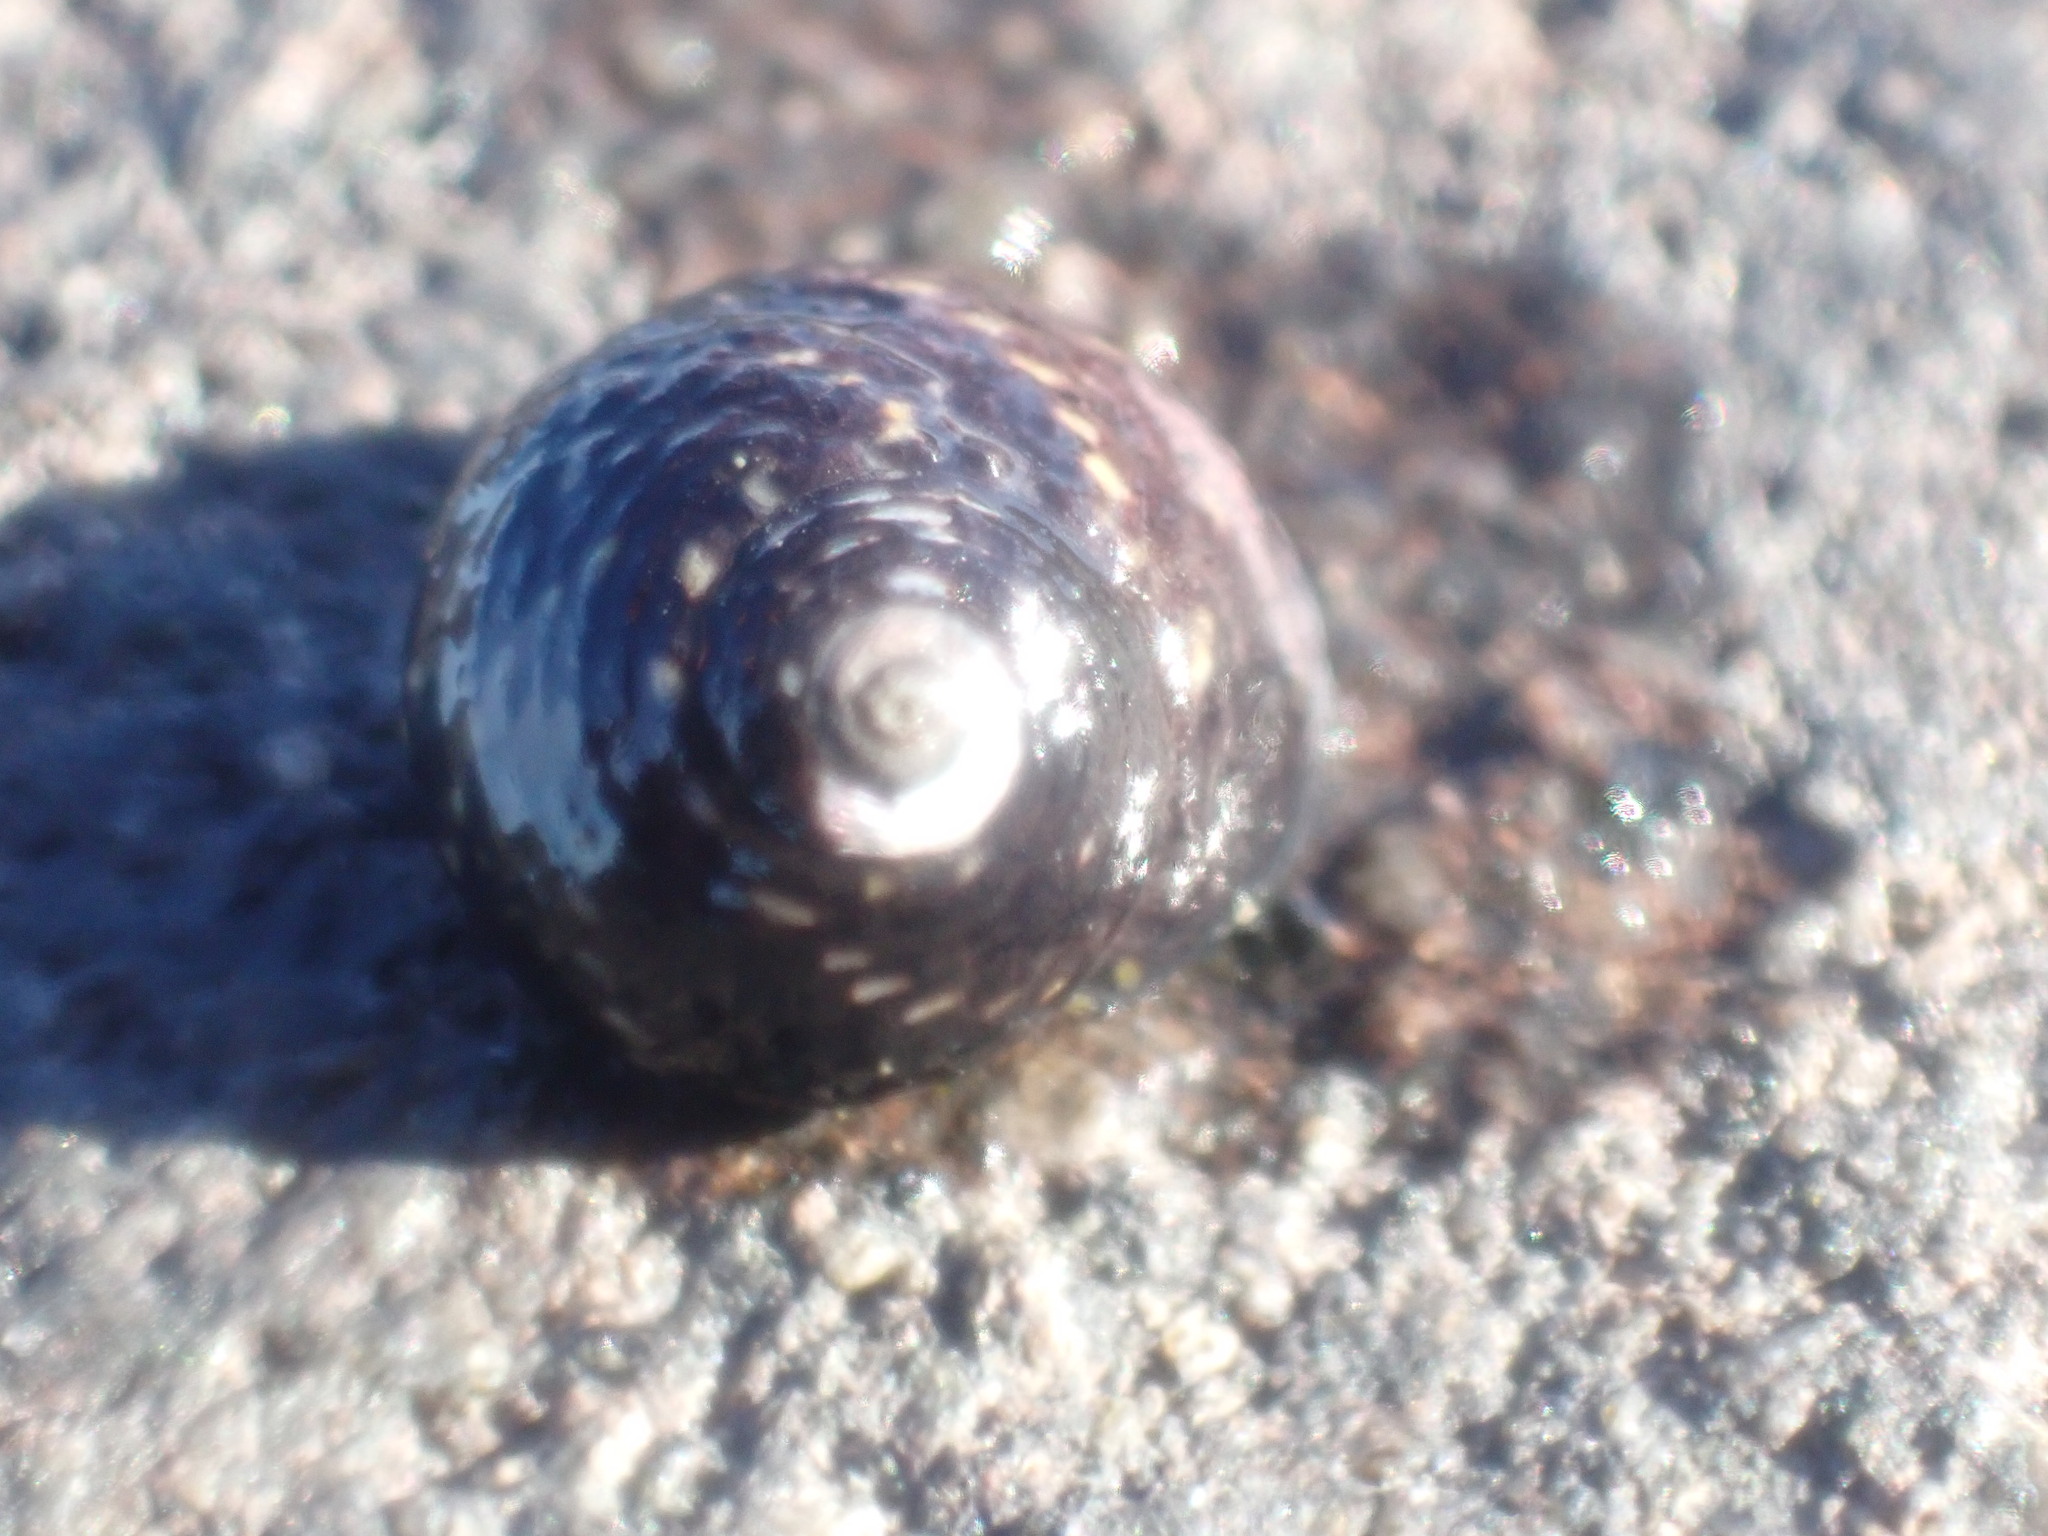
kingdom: Animalia
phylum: Mollusca
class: Gastropoda
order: Trochida
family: Trochidae
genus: Diloma
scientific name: Diloma aridum
